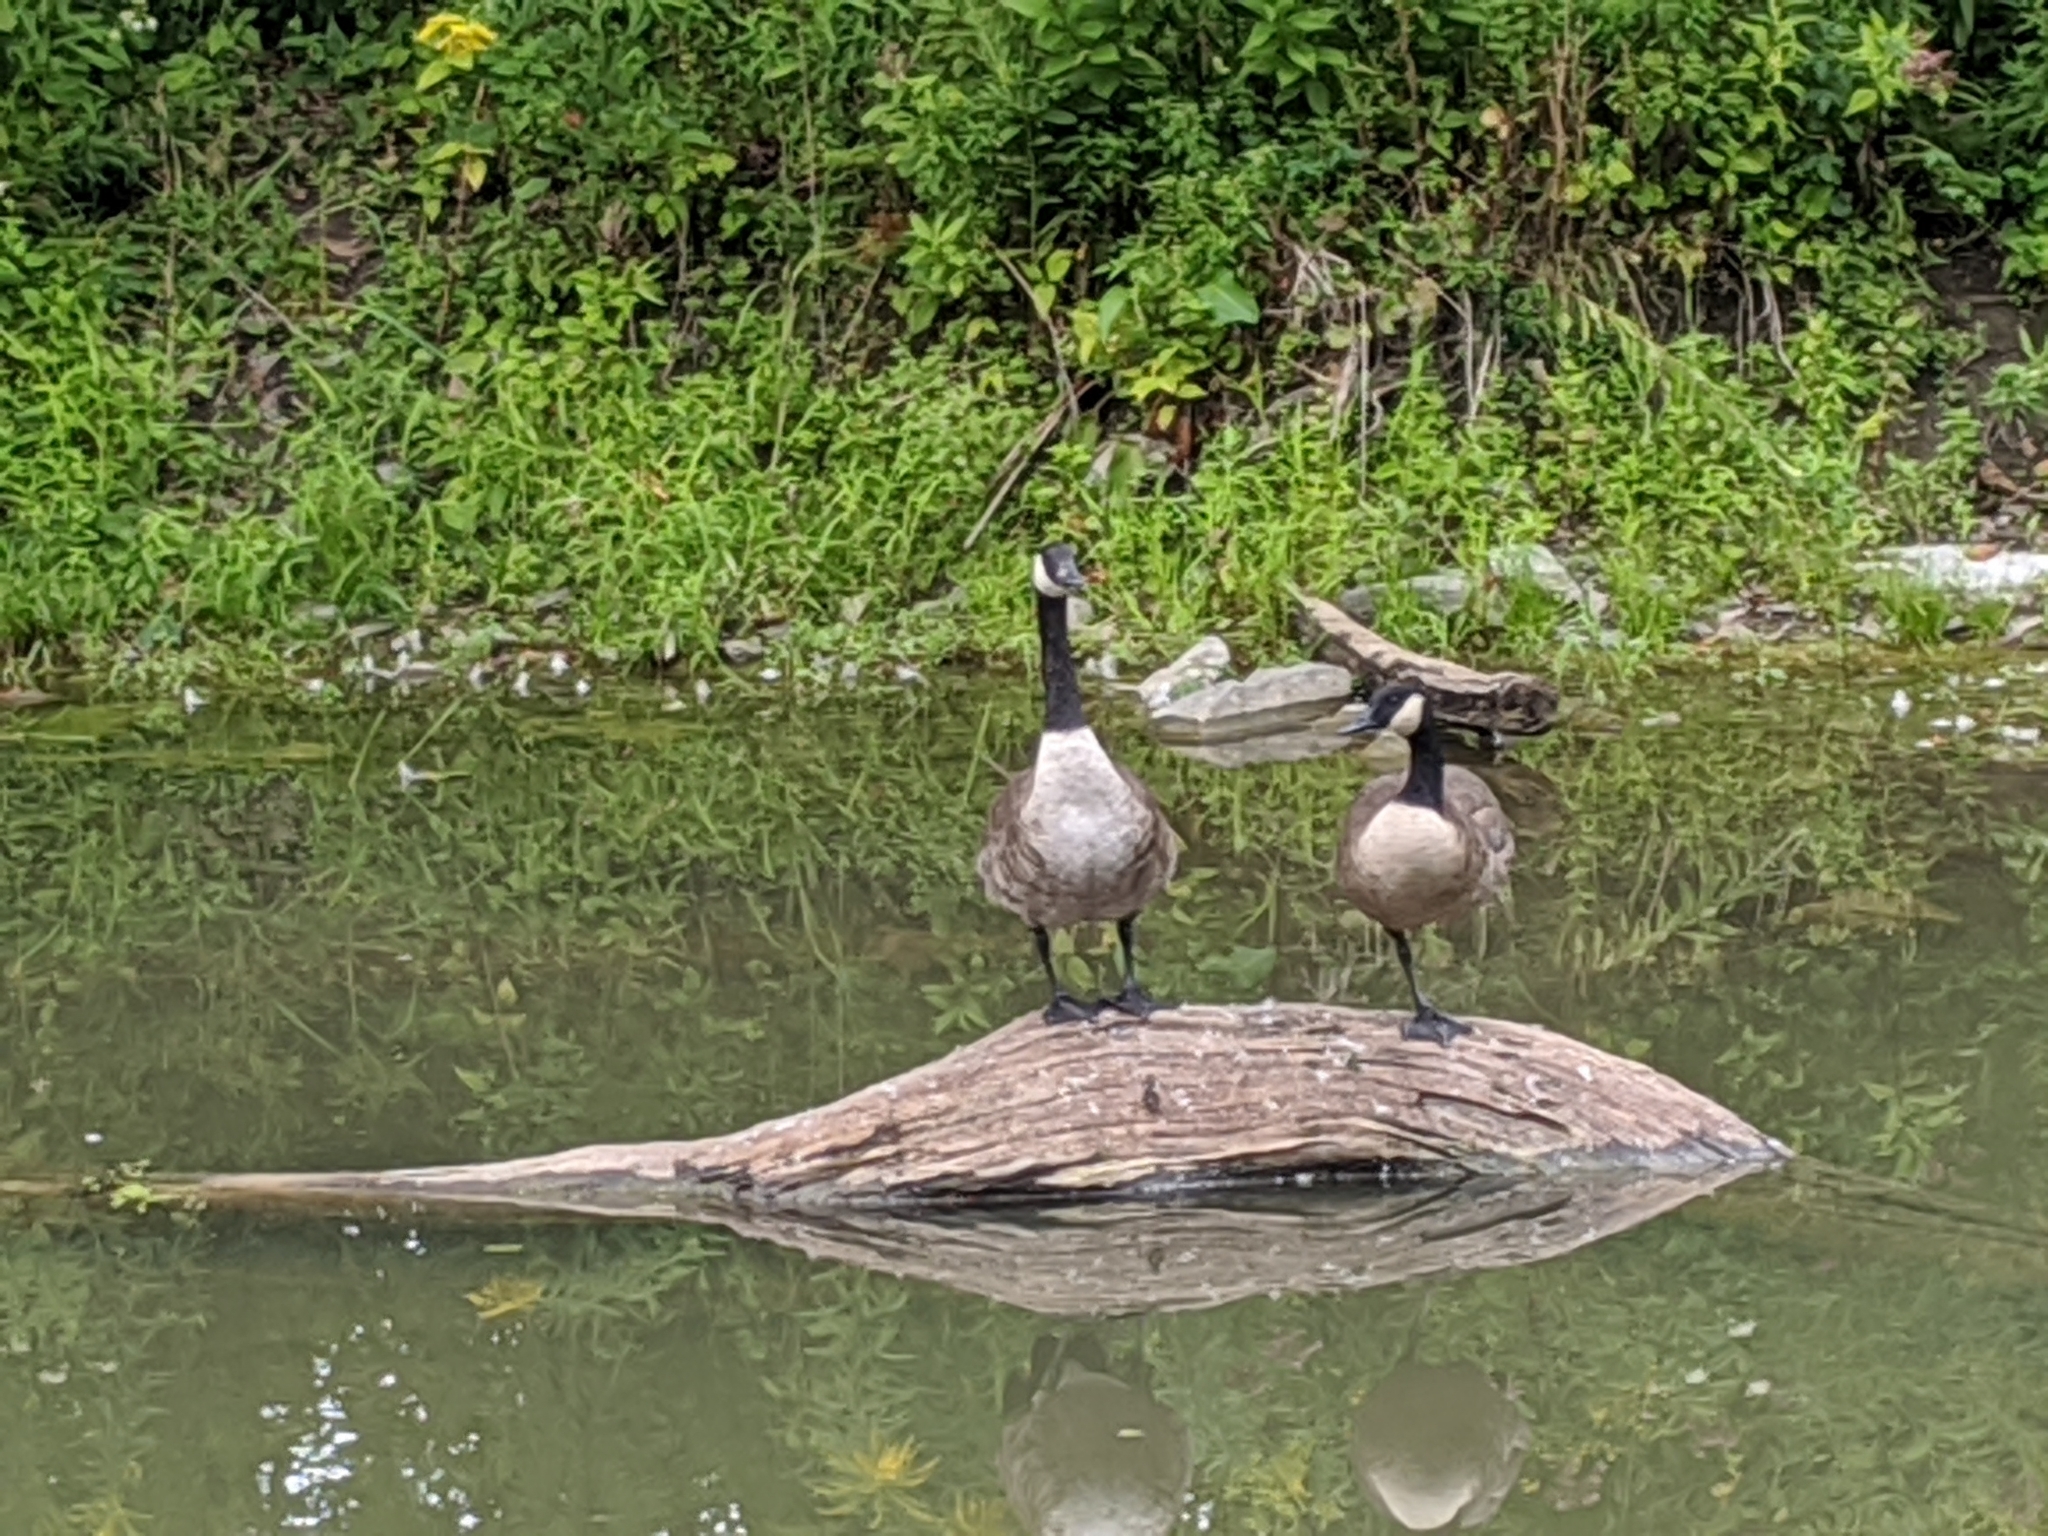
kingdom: Animalia
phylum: Chordata
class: Aves
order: Anseriformes
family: Anatidae
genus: Branta
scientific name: Branta canadensis
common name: Canada goose
